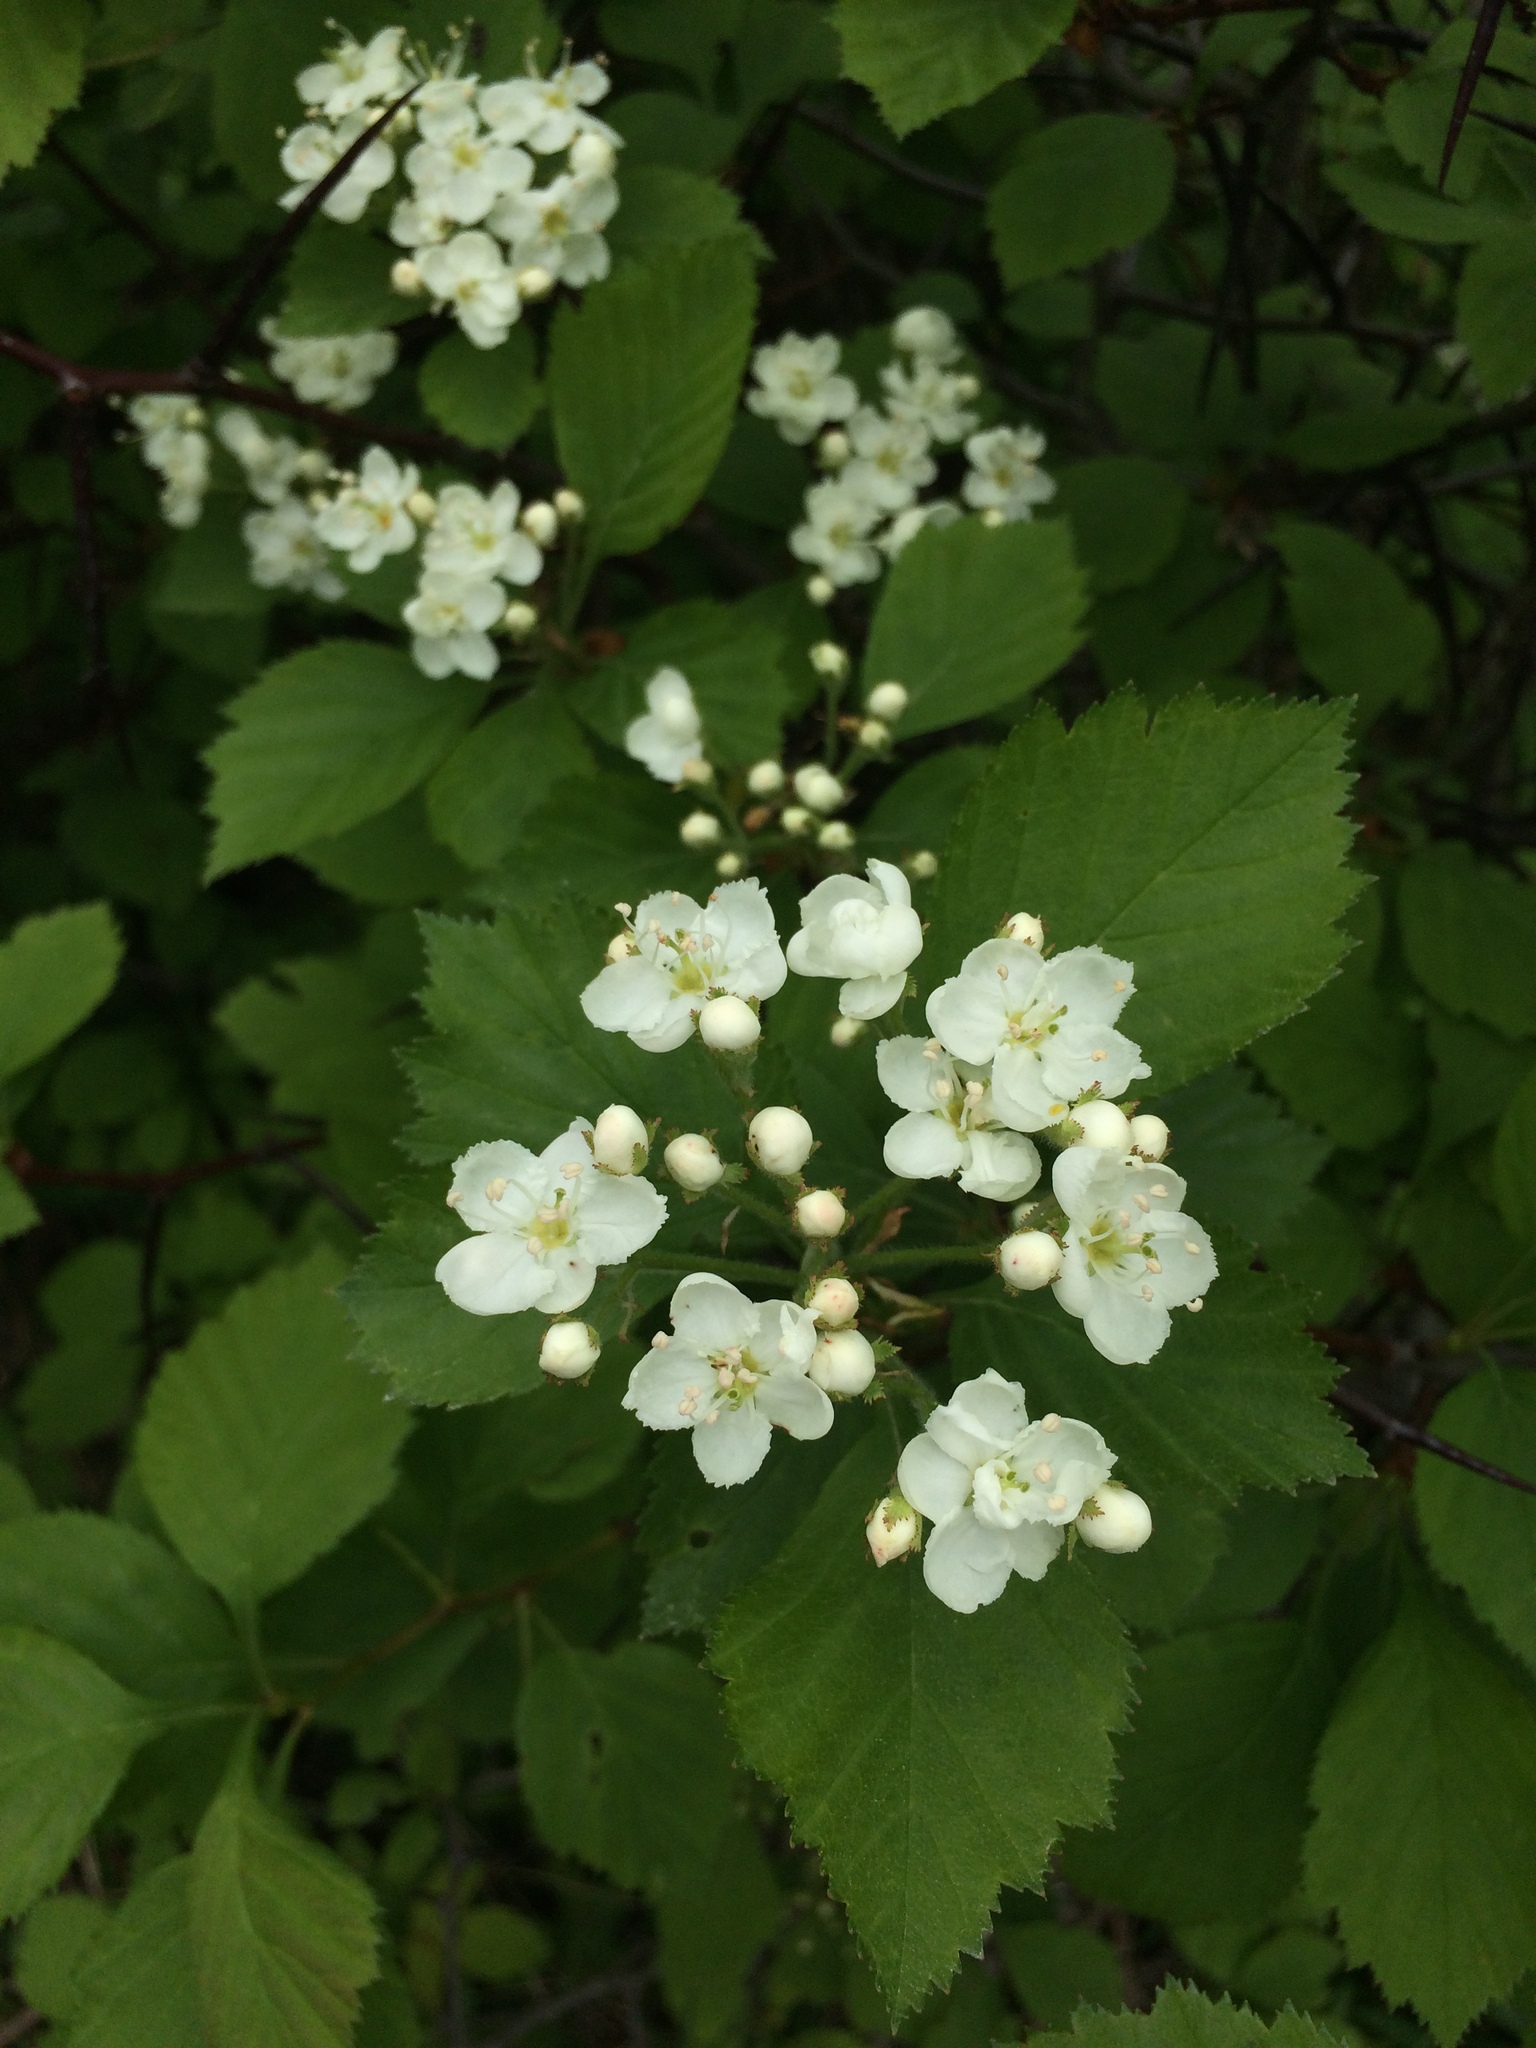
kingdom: Plantae
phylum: Tracheophyta
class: Magnoliopsida
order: Rosales
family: Rosaceae
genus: Crataegus
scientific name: Crataegus macracantha
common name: Large-thorn hawthorn
